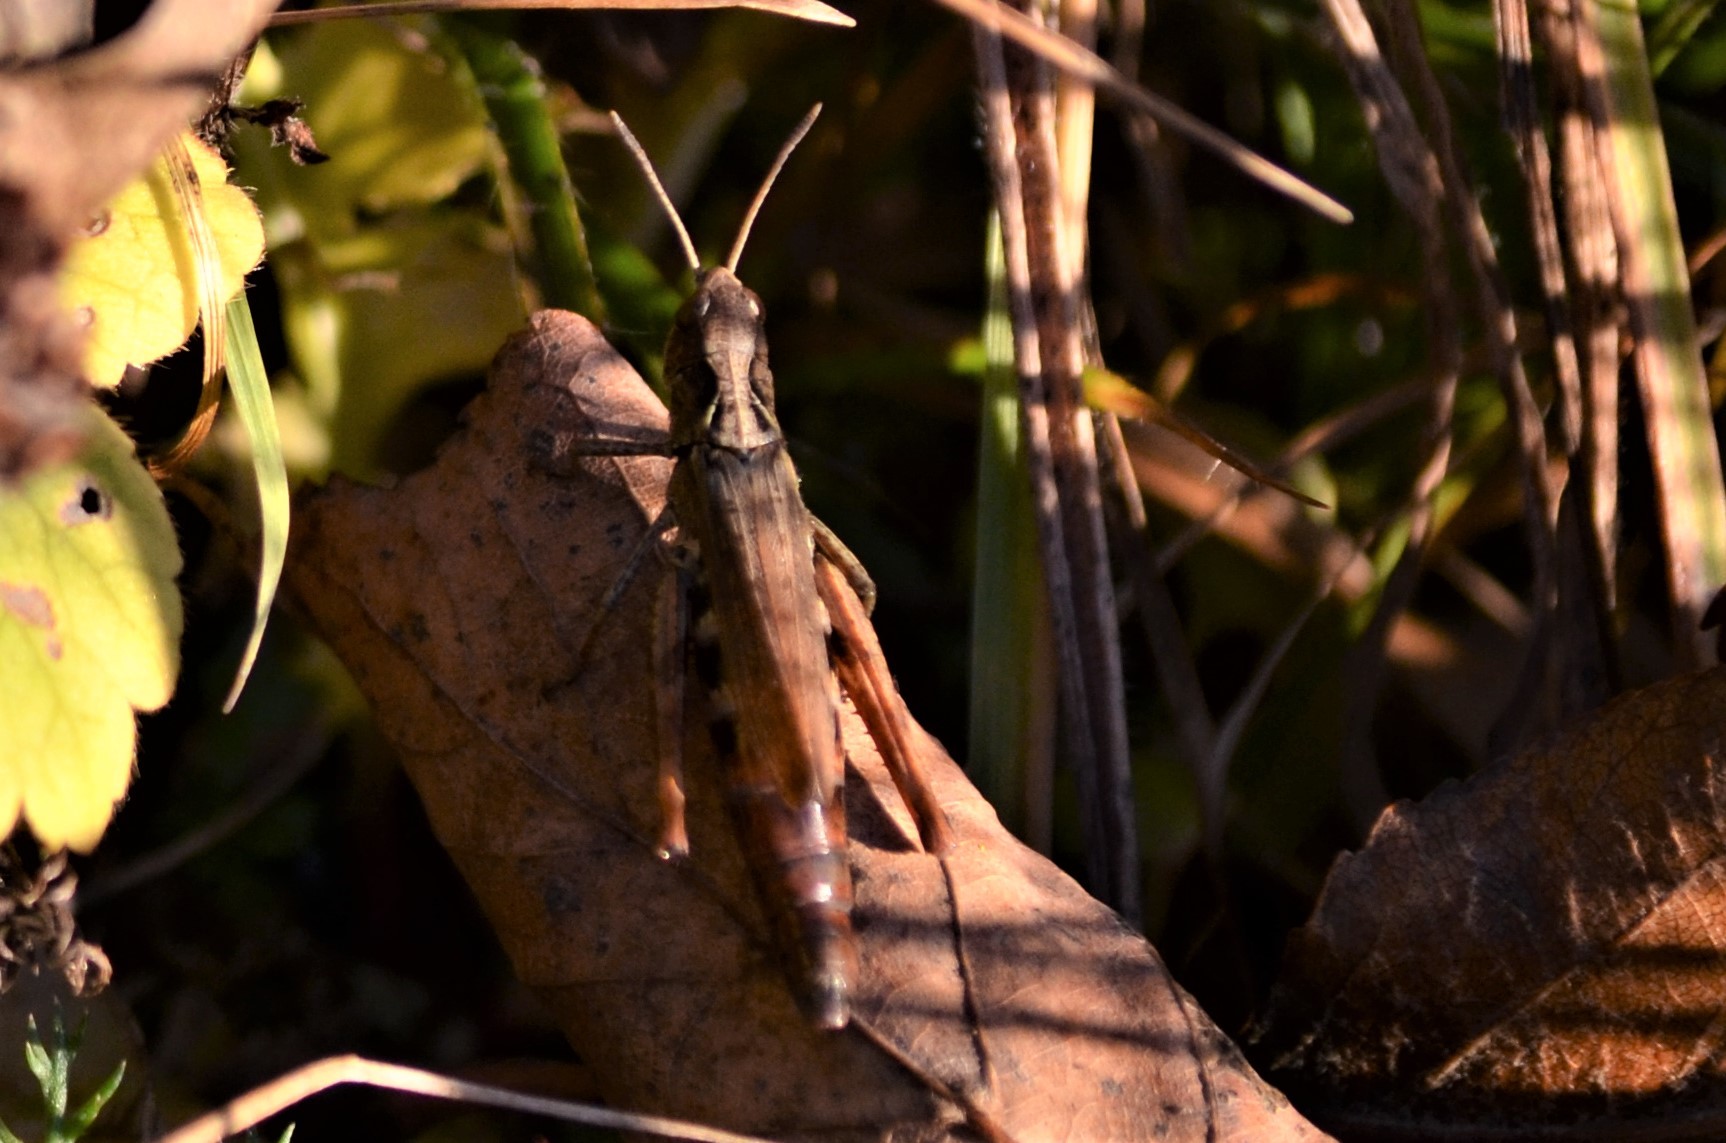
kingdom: Animalia
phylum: Arthropoda
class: Insecta
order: Orthoptera
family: Acrididae
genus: Gomphocerippus
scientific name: Gomphocerippus rufus
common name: Rufous grasshopper
